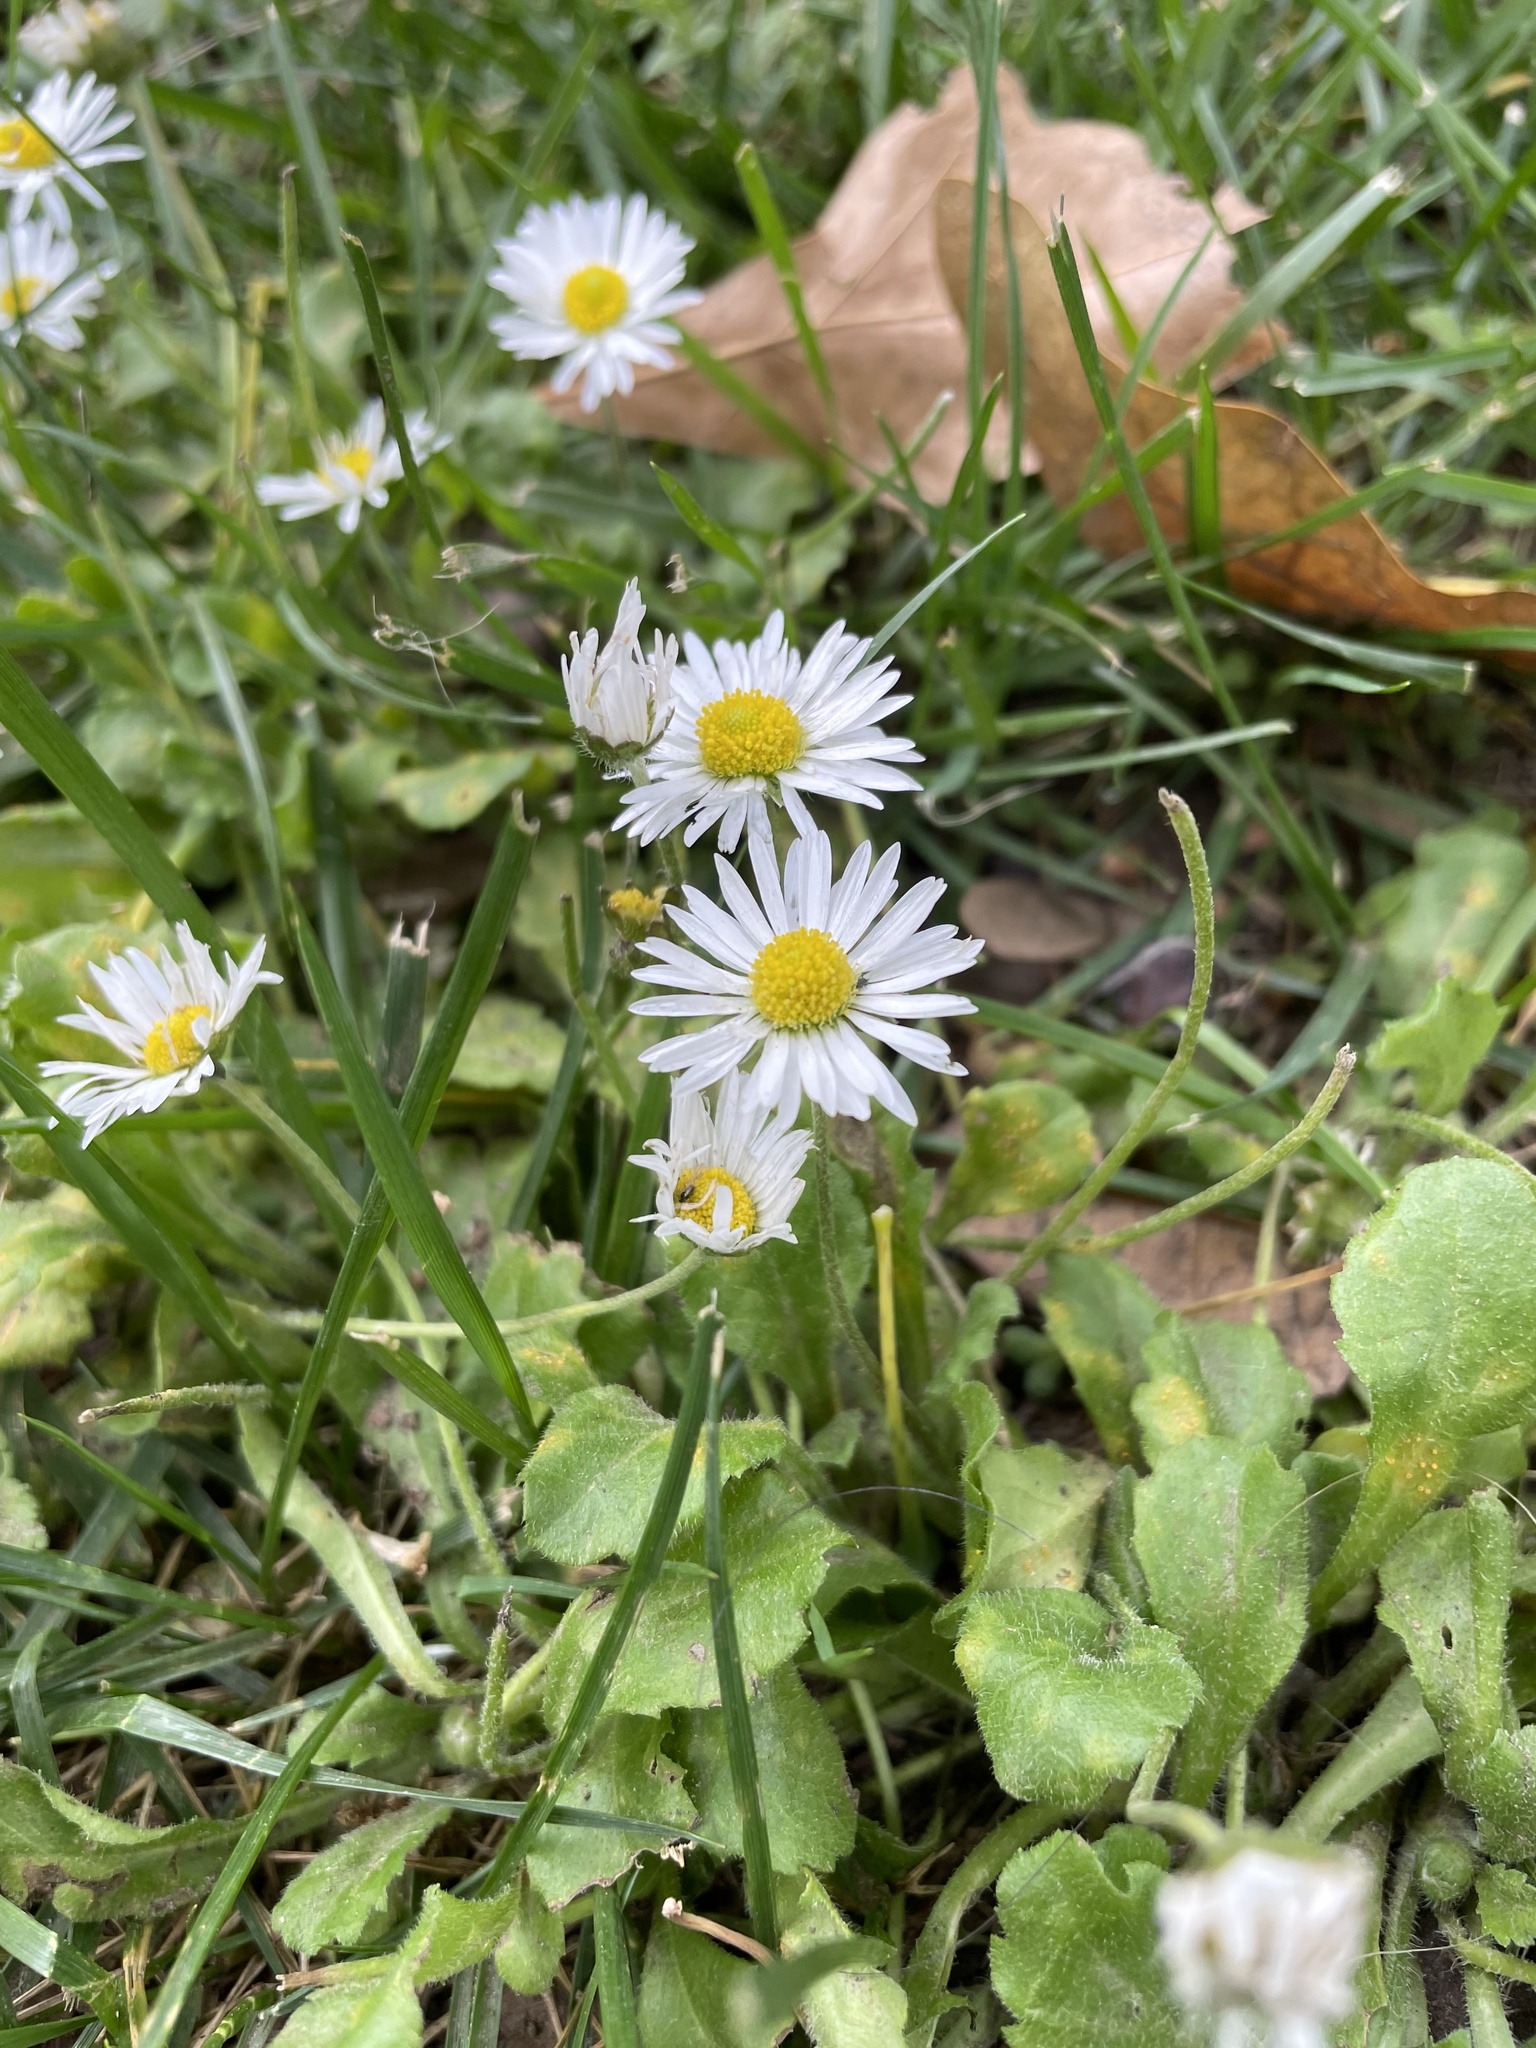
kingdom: Plantae
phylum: Tracheophyta
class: Magnoliopsida
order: Asterales
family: Asteraceae
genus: Bellis
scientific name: Bellis perennis
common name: Lawndaisy
